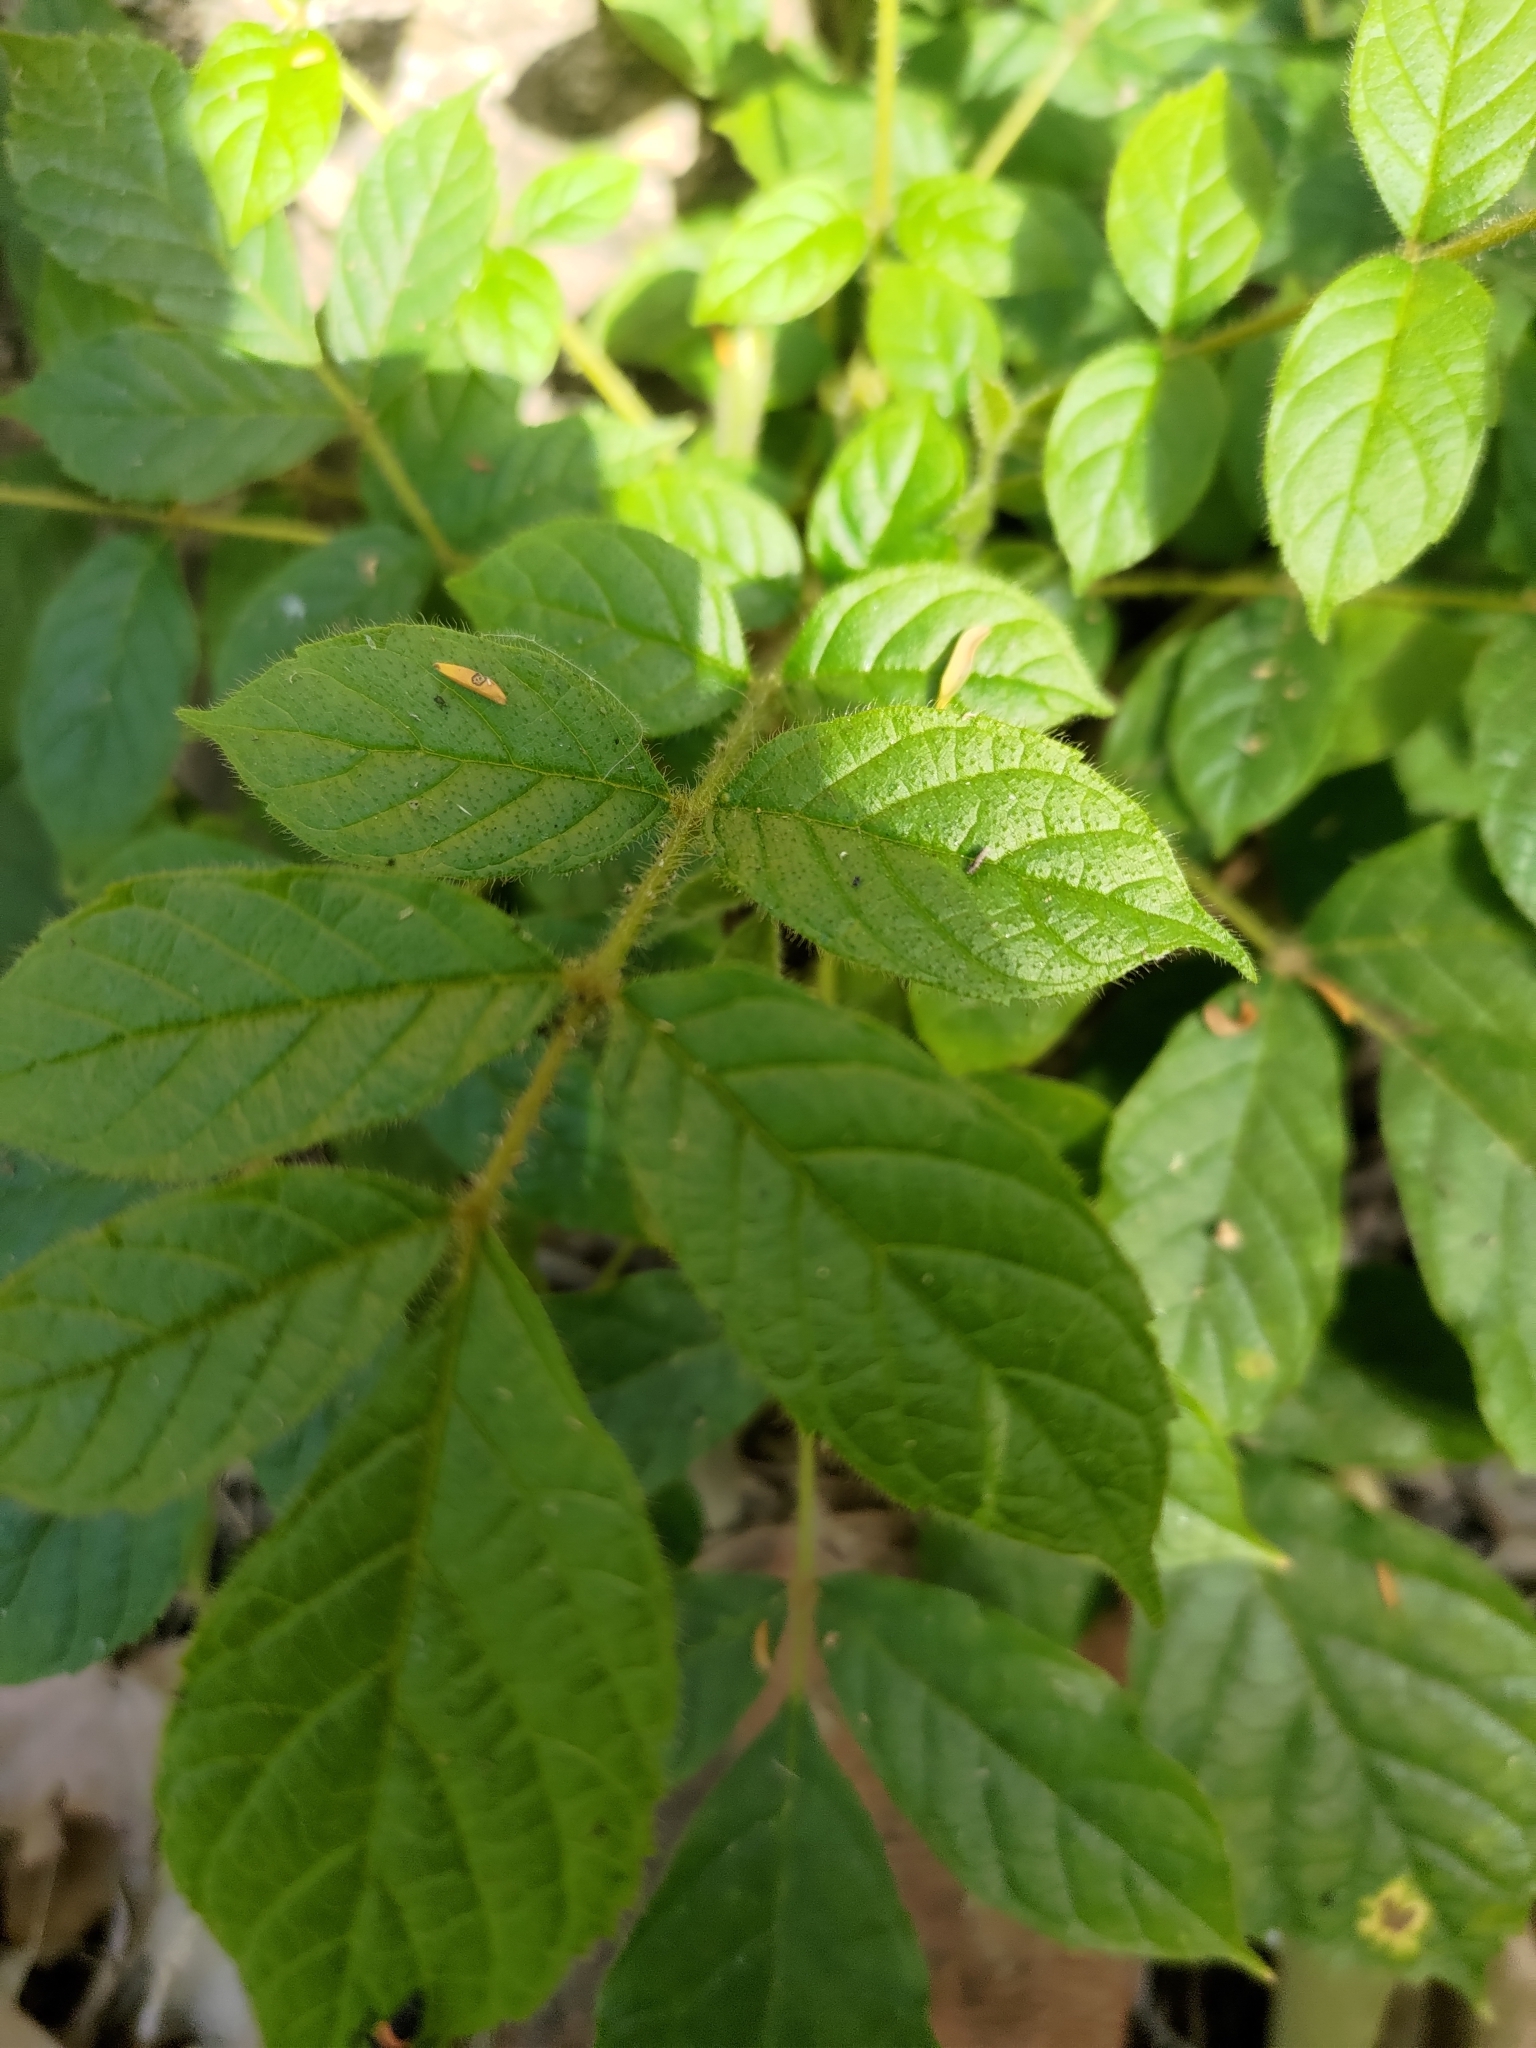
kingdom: Plantae
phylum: Tracheophyta
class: Magnoliopsida
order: Lamiales
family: Bignoniaceae
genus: Spathodea
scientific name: Spathodea campanulata
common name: African tuliptree
